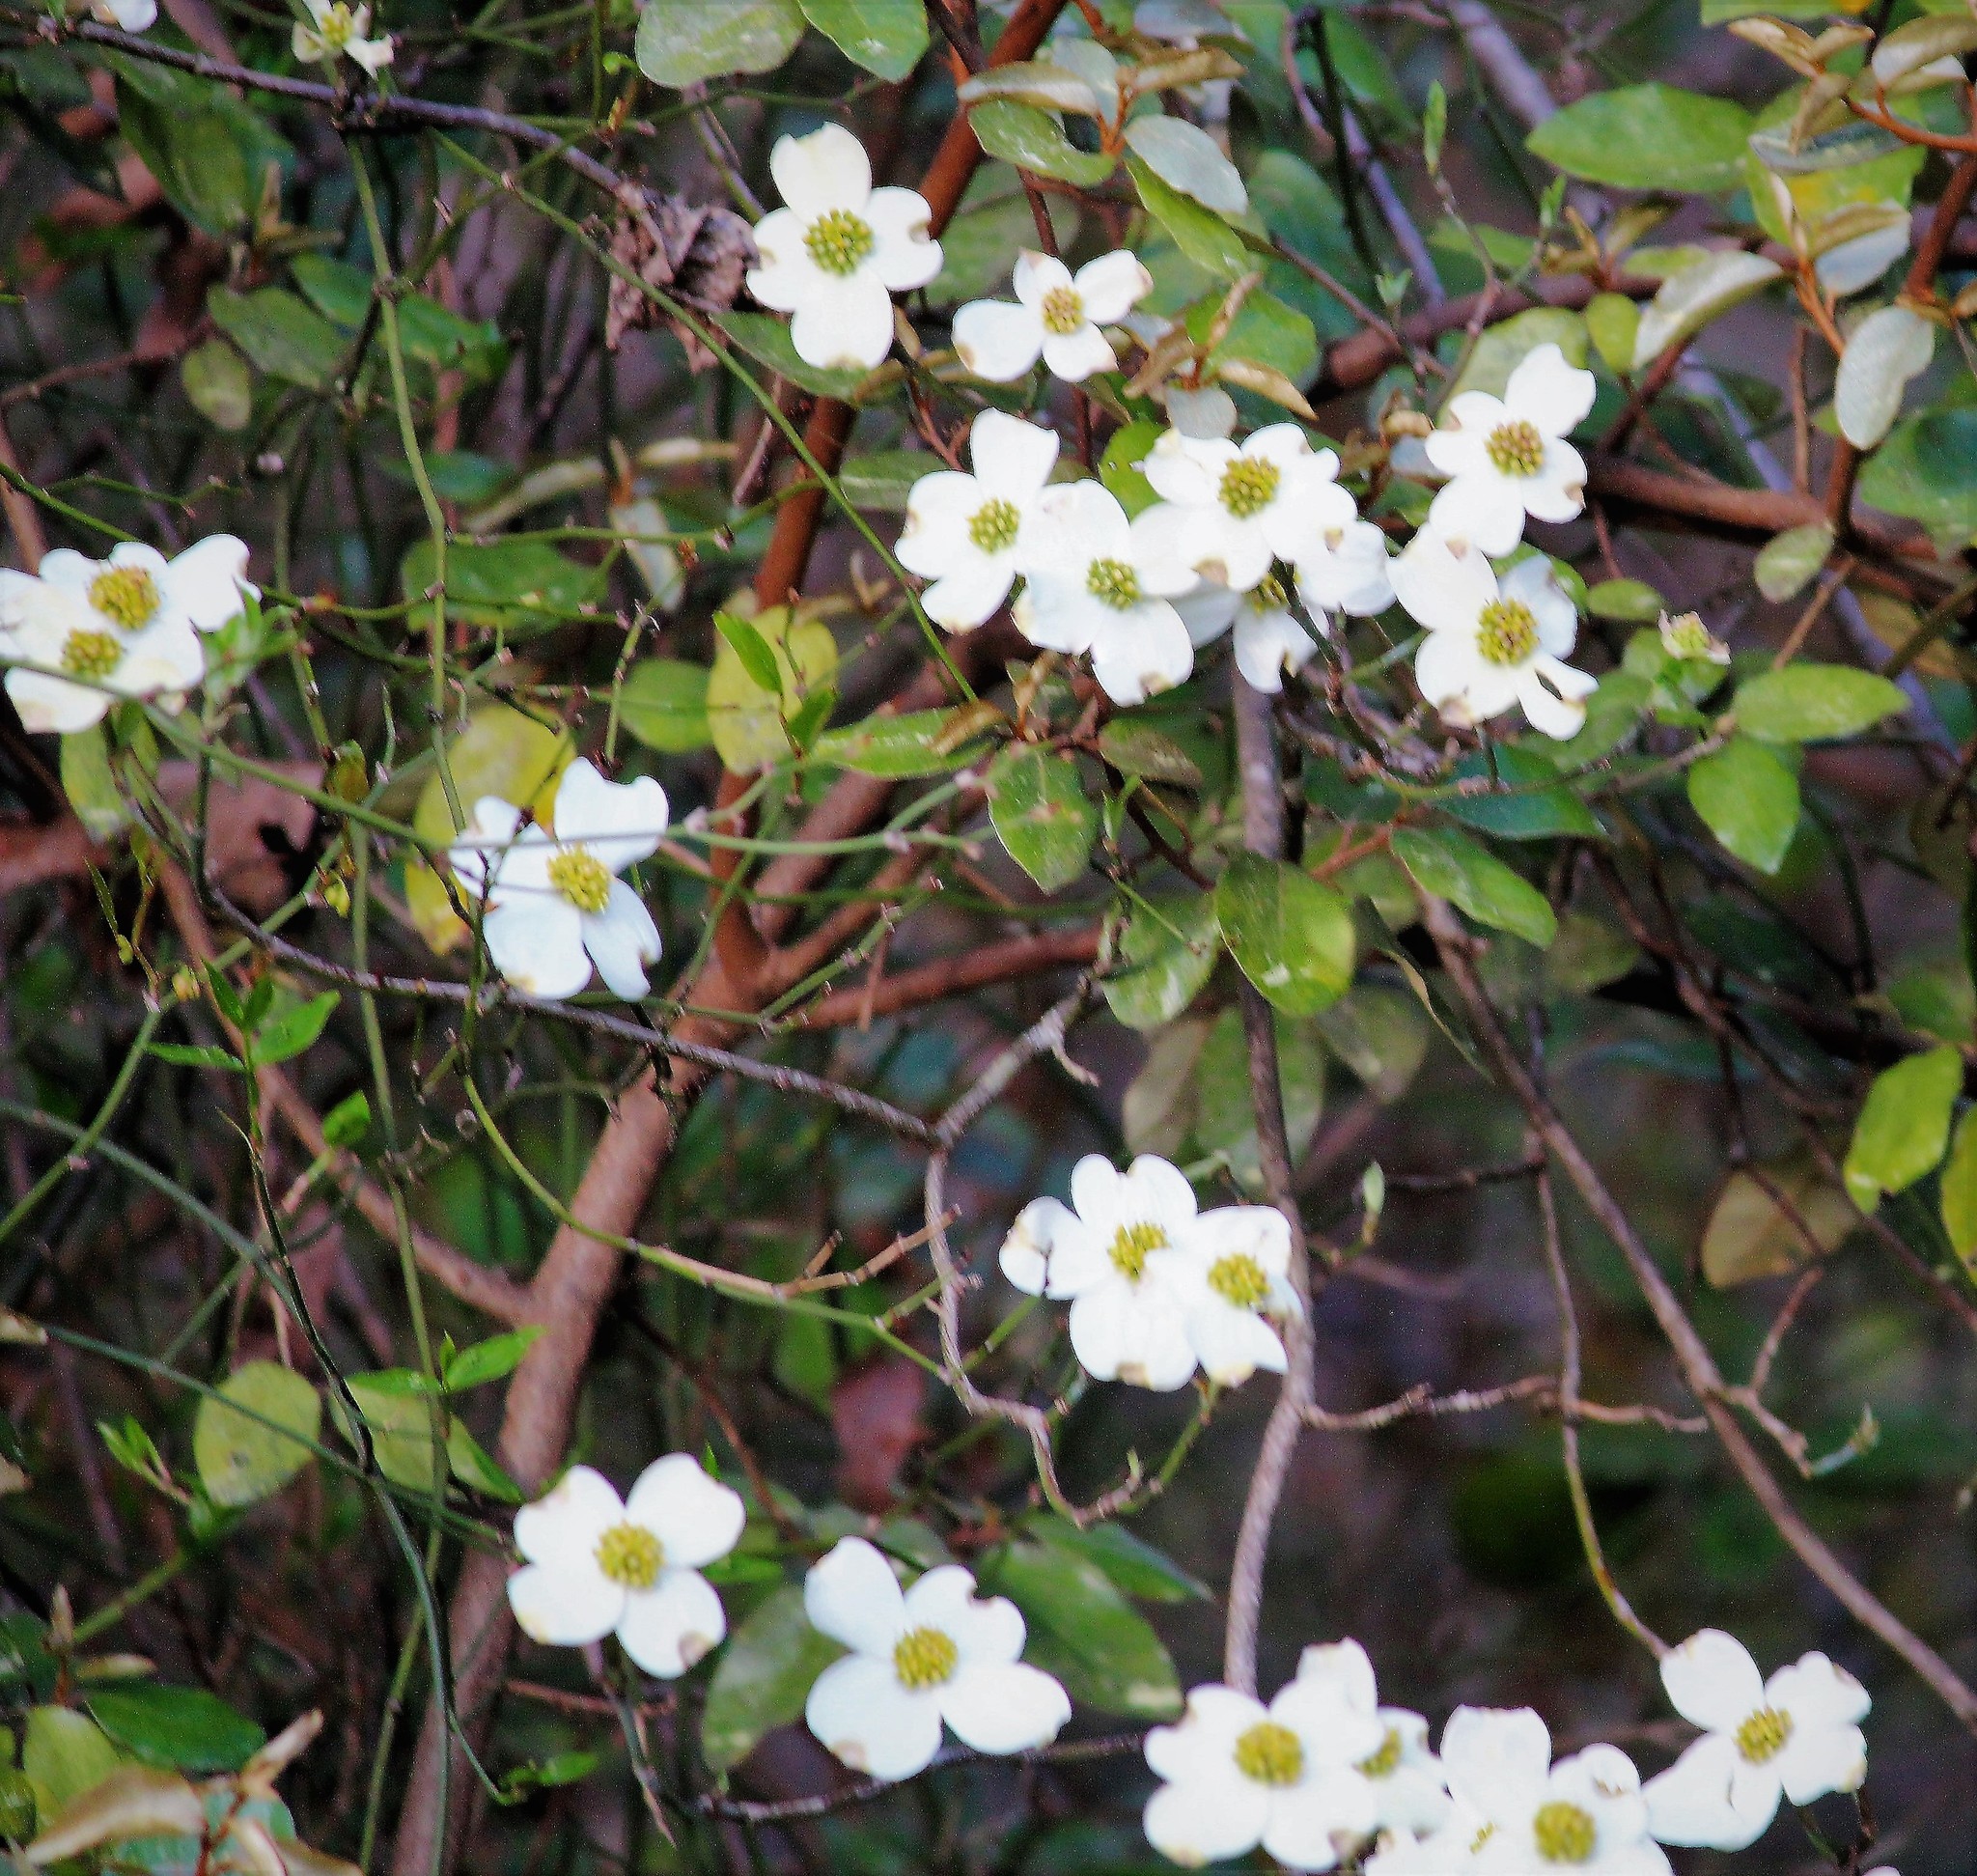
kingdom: Plantae
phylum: Tracheophyta
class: Magnoliopsida
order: Cornales
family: Cornaceae
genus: Cornus
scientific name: Cornus florida
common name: Flowering dogwood
